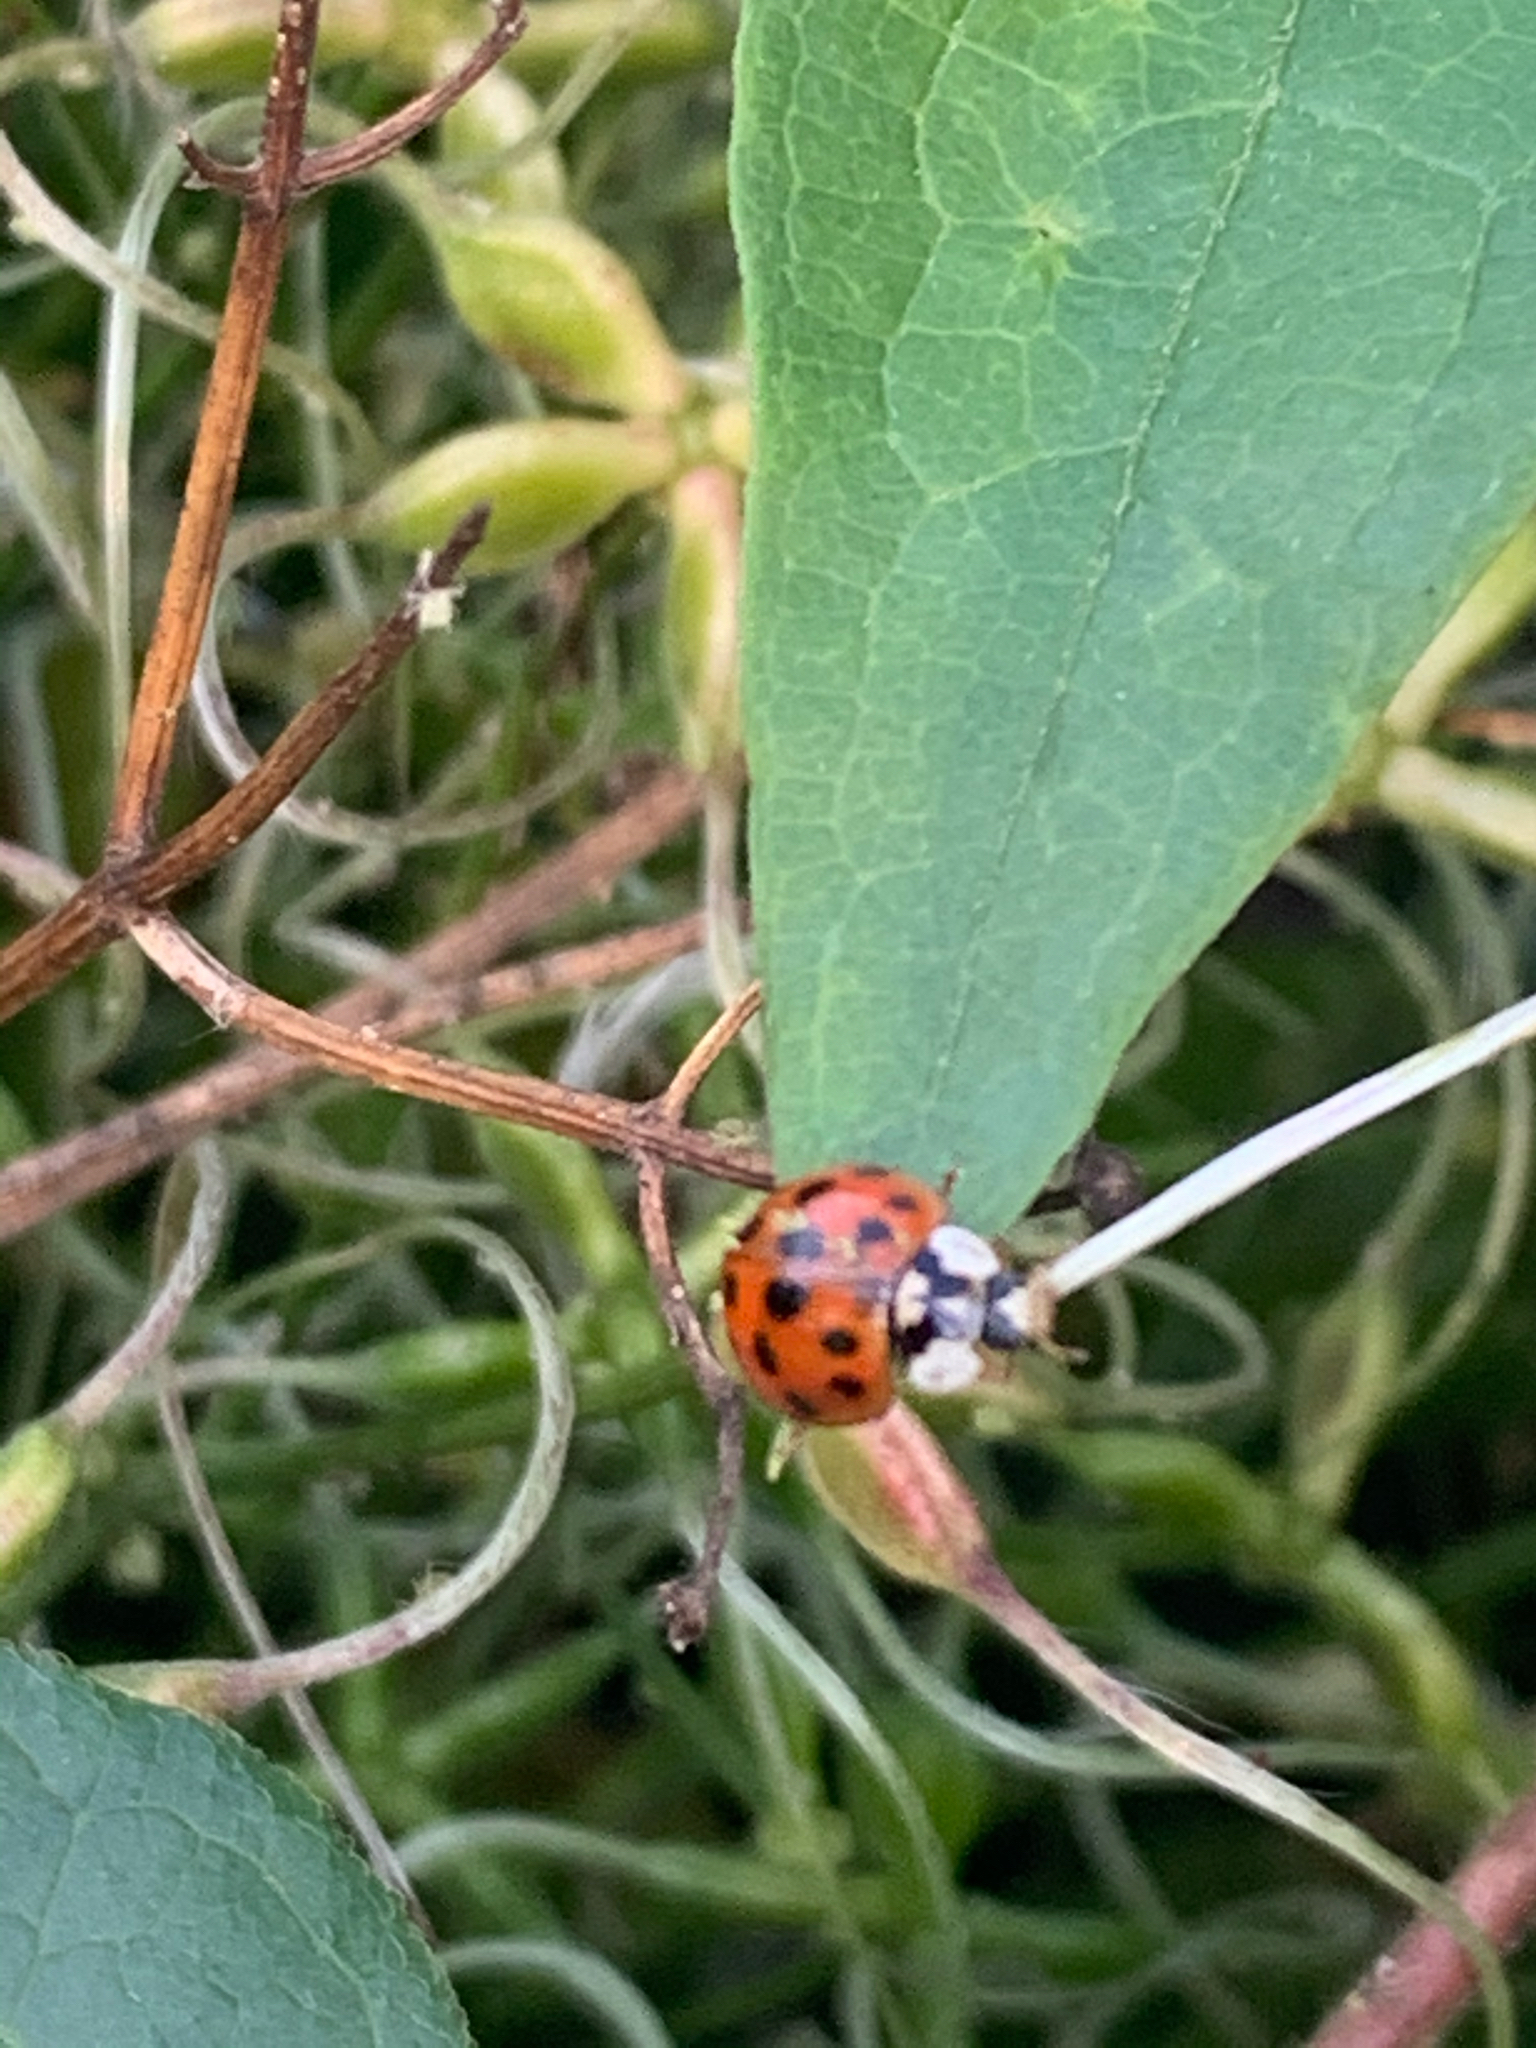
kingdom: Animalia
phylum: Arthropoda
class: Insecta
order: Coleoptera
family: Coccinellidae
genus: Harmonia
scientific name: Harmonia axyridis
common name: Harlequin ladybird
